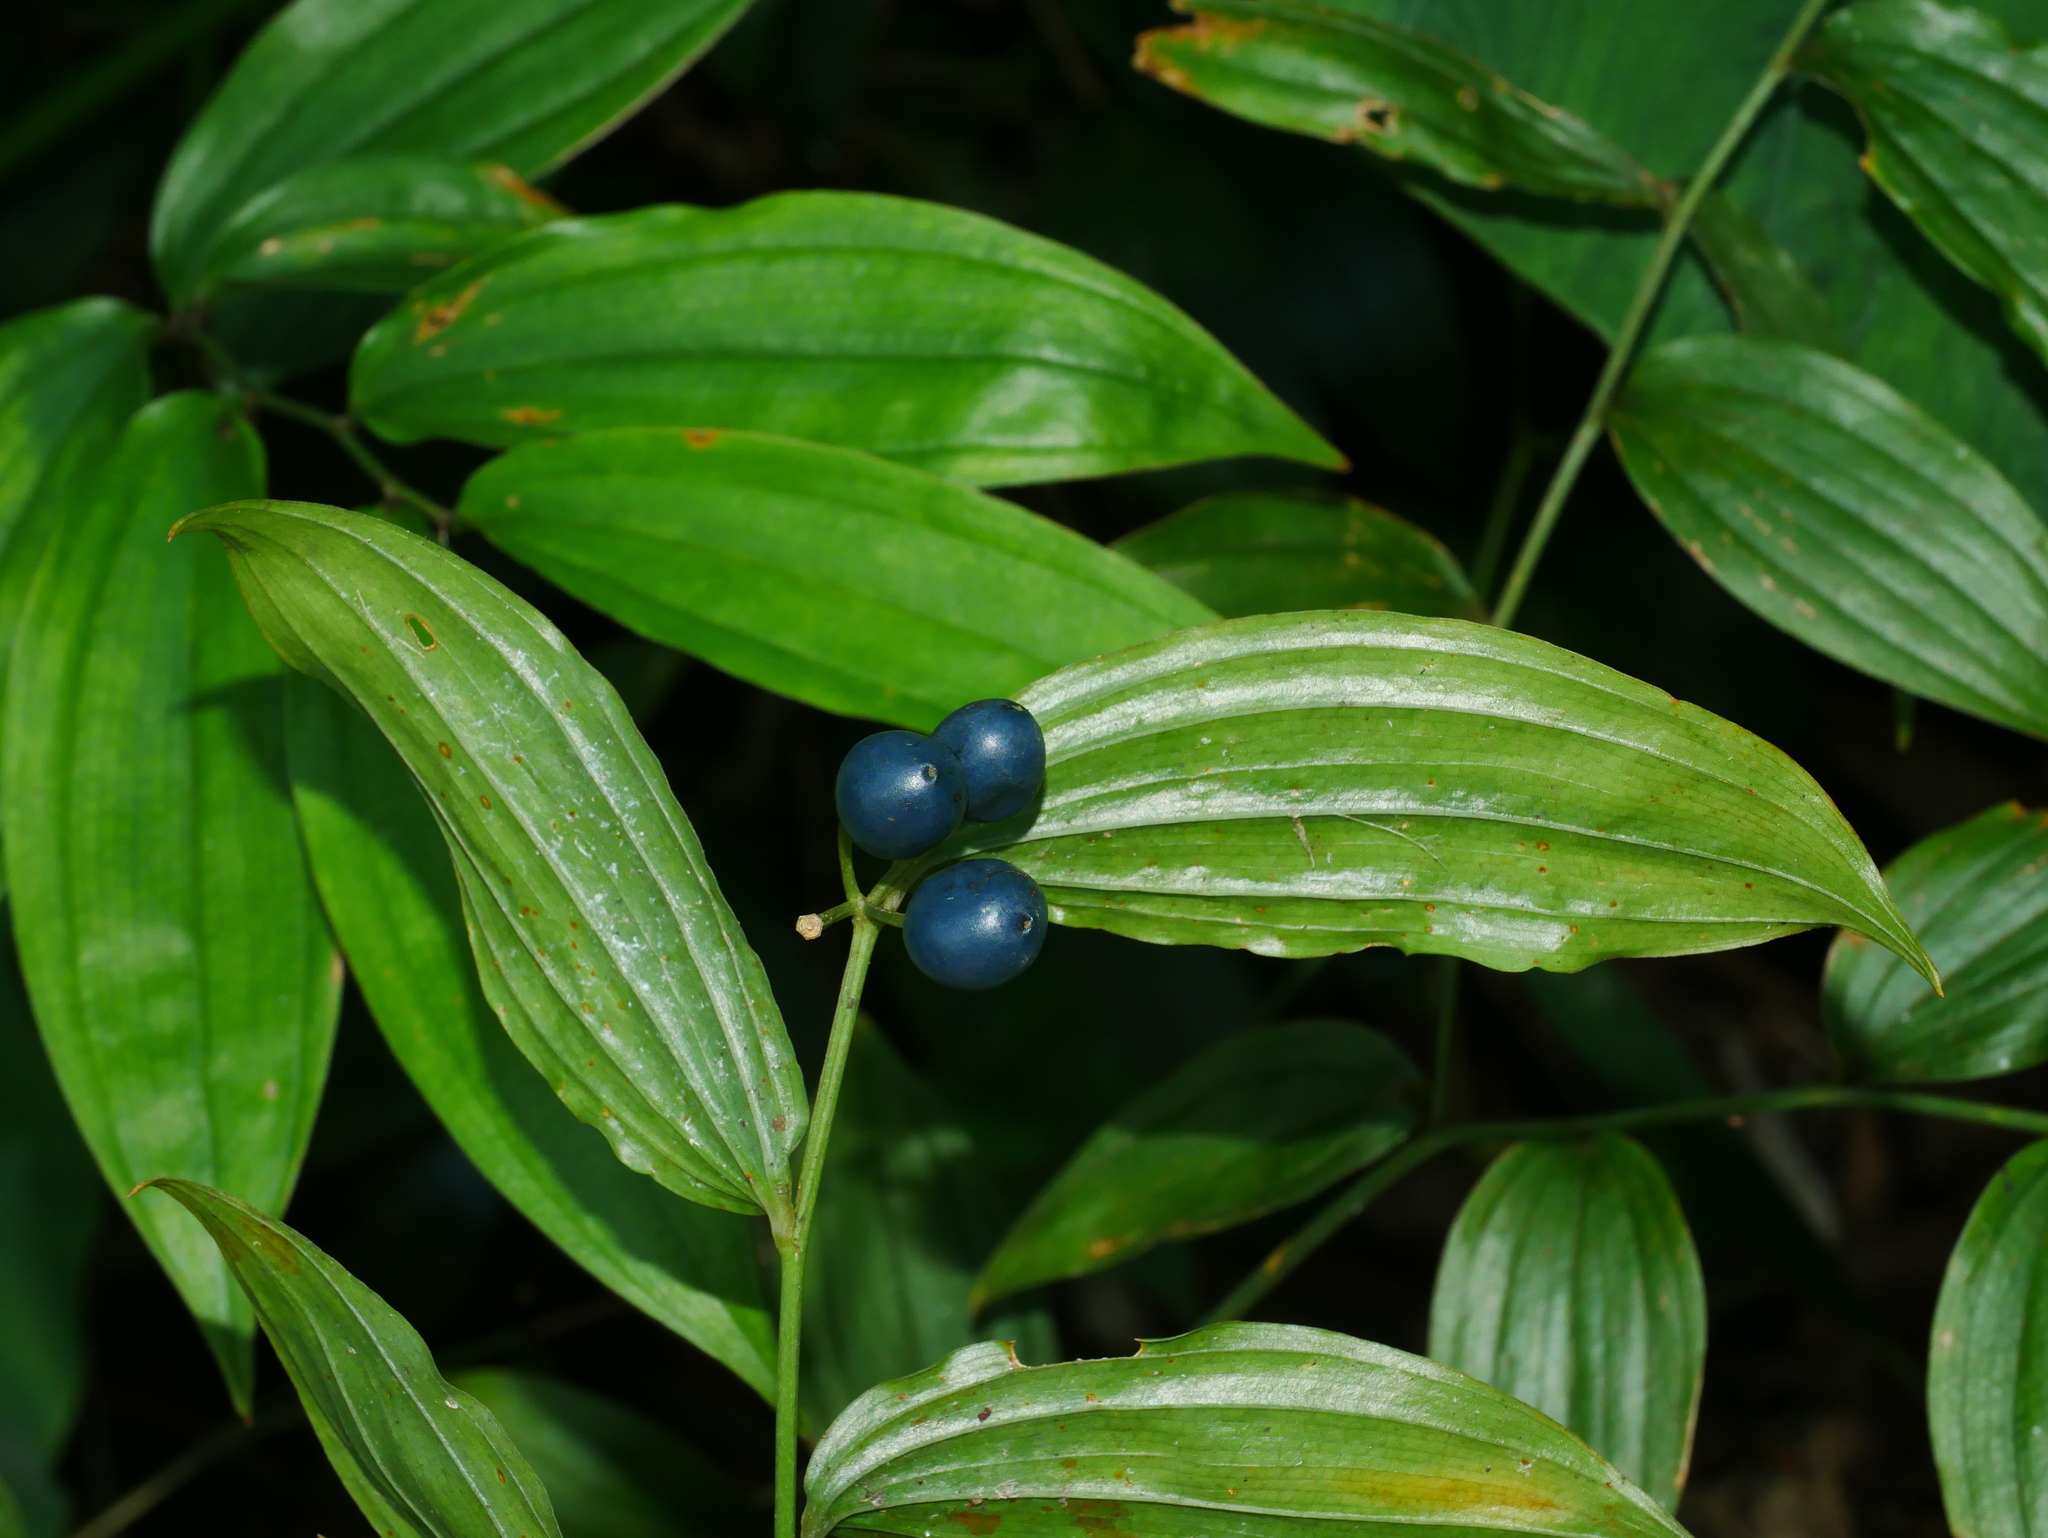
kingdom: Plantae
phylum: Tracheophyta
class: Liliopsida
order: Liliales
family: Colchicaceae
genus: Disporum
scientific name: Disporum kawakamii
